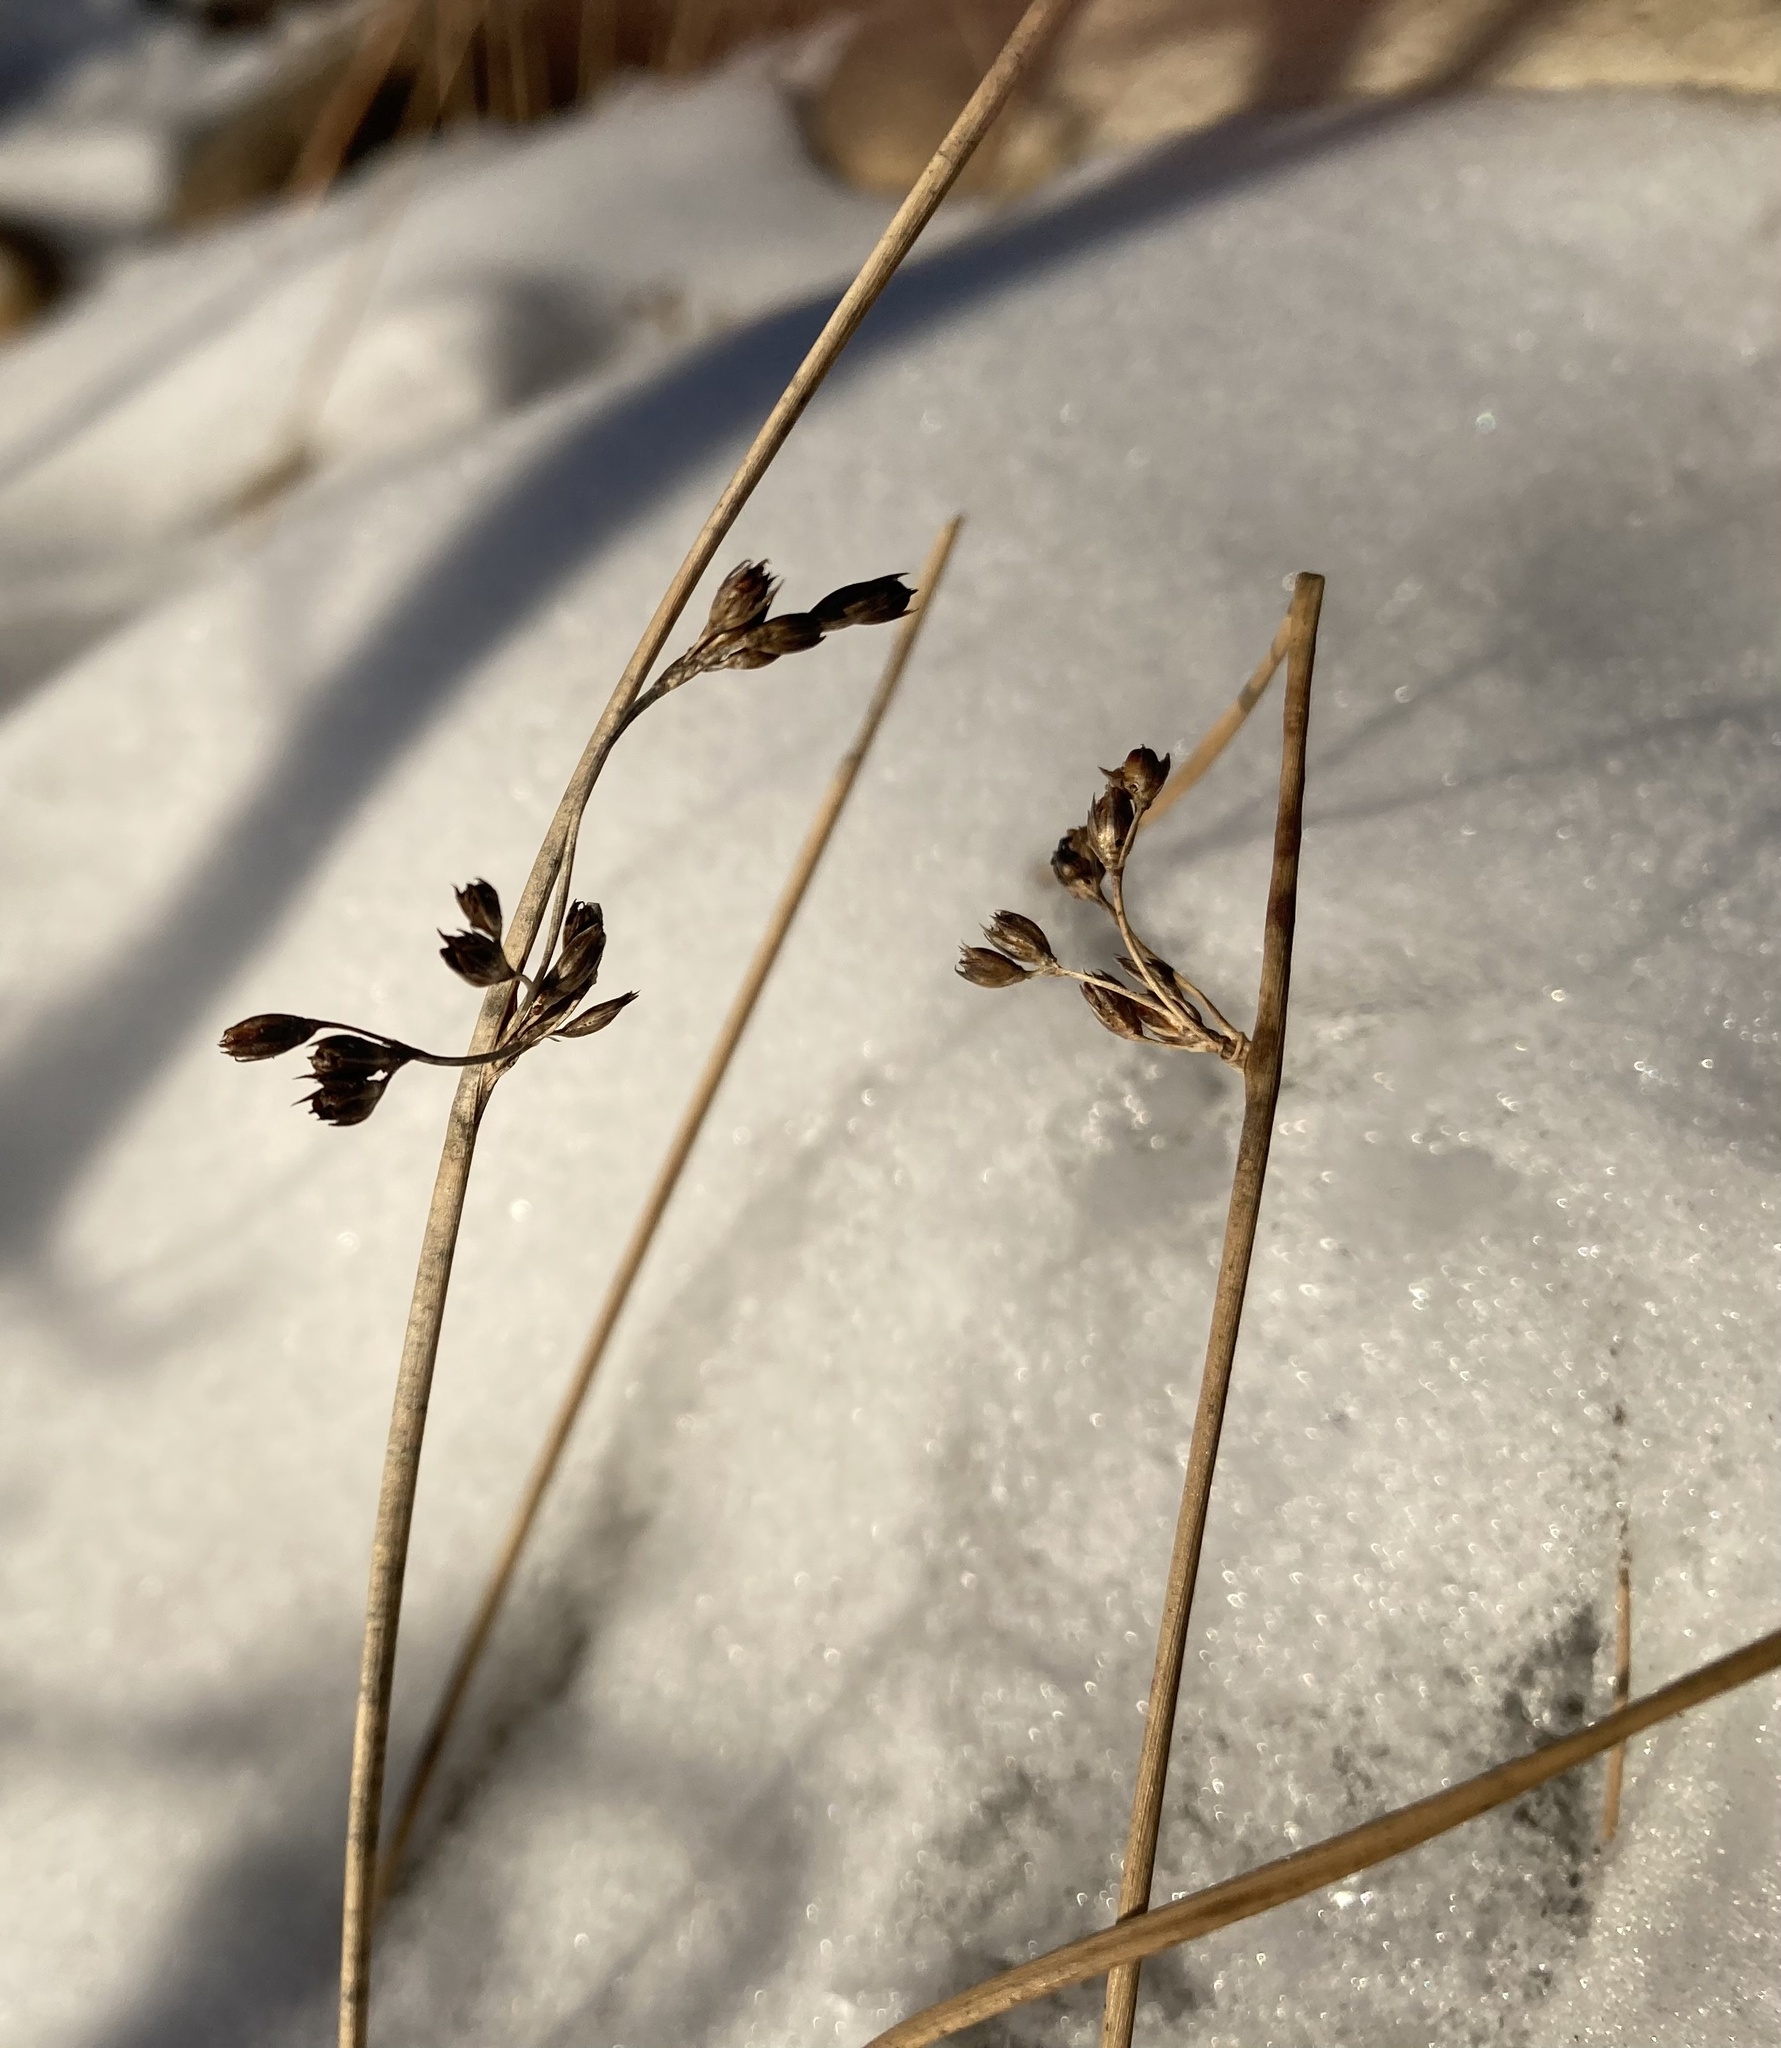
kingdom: Plantae
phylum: Tracheophyta
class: Liliopsida
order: Poales
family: Juncaceae
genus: Juncus
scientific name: Juncus balticus
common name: Baltic rush
